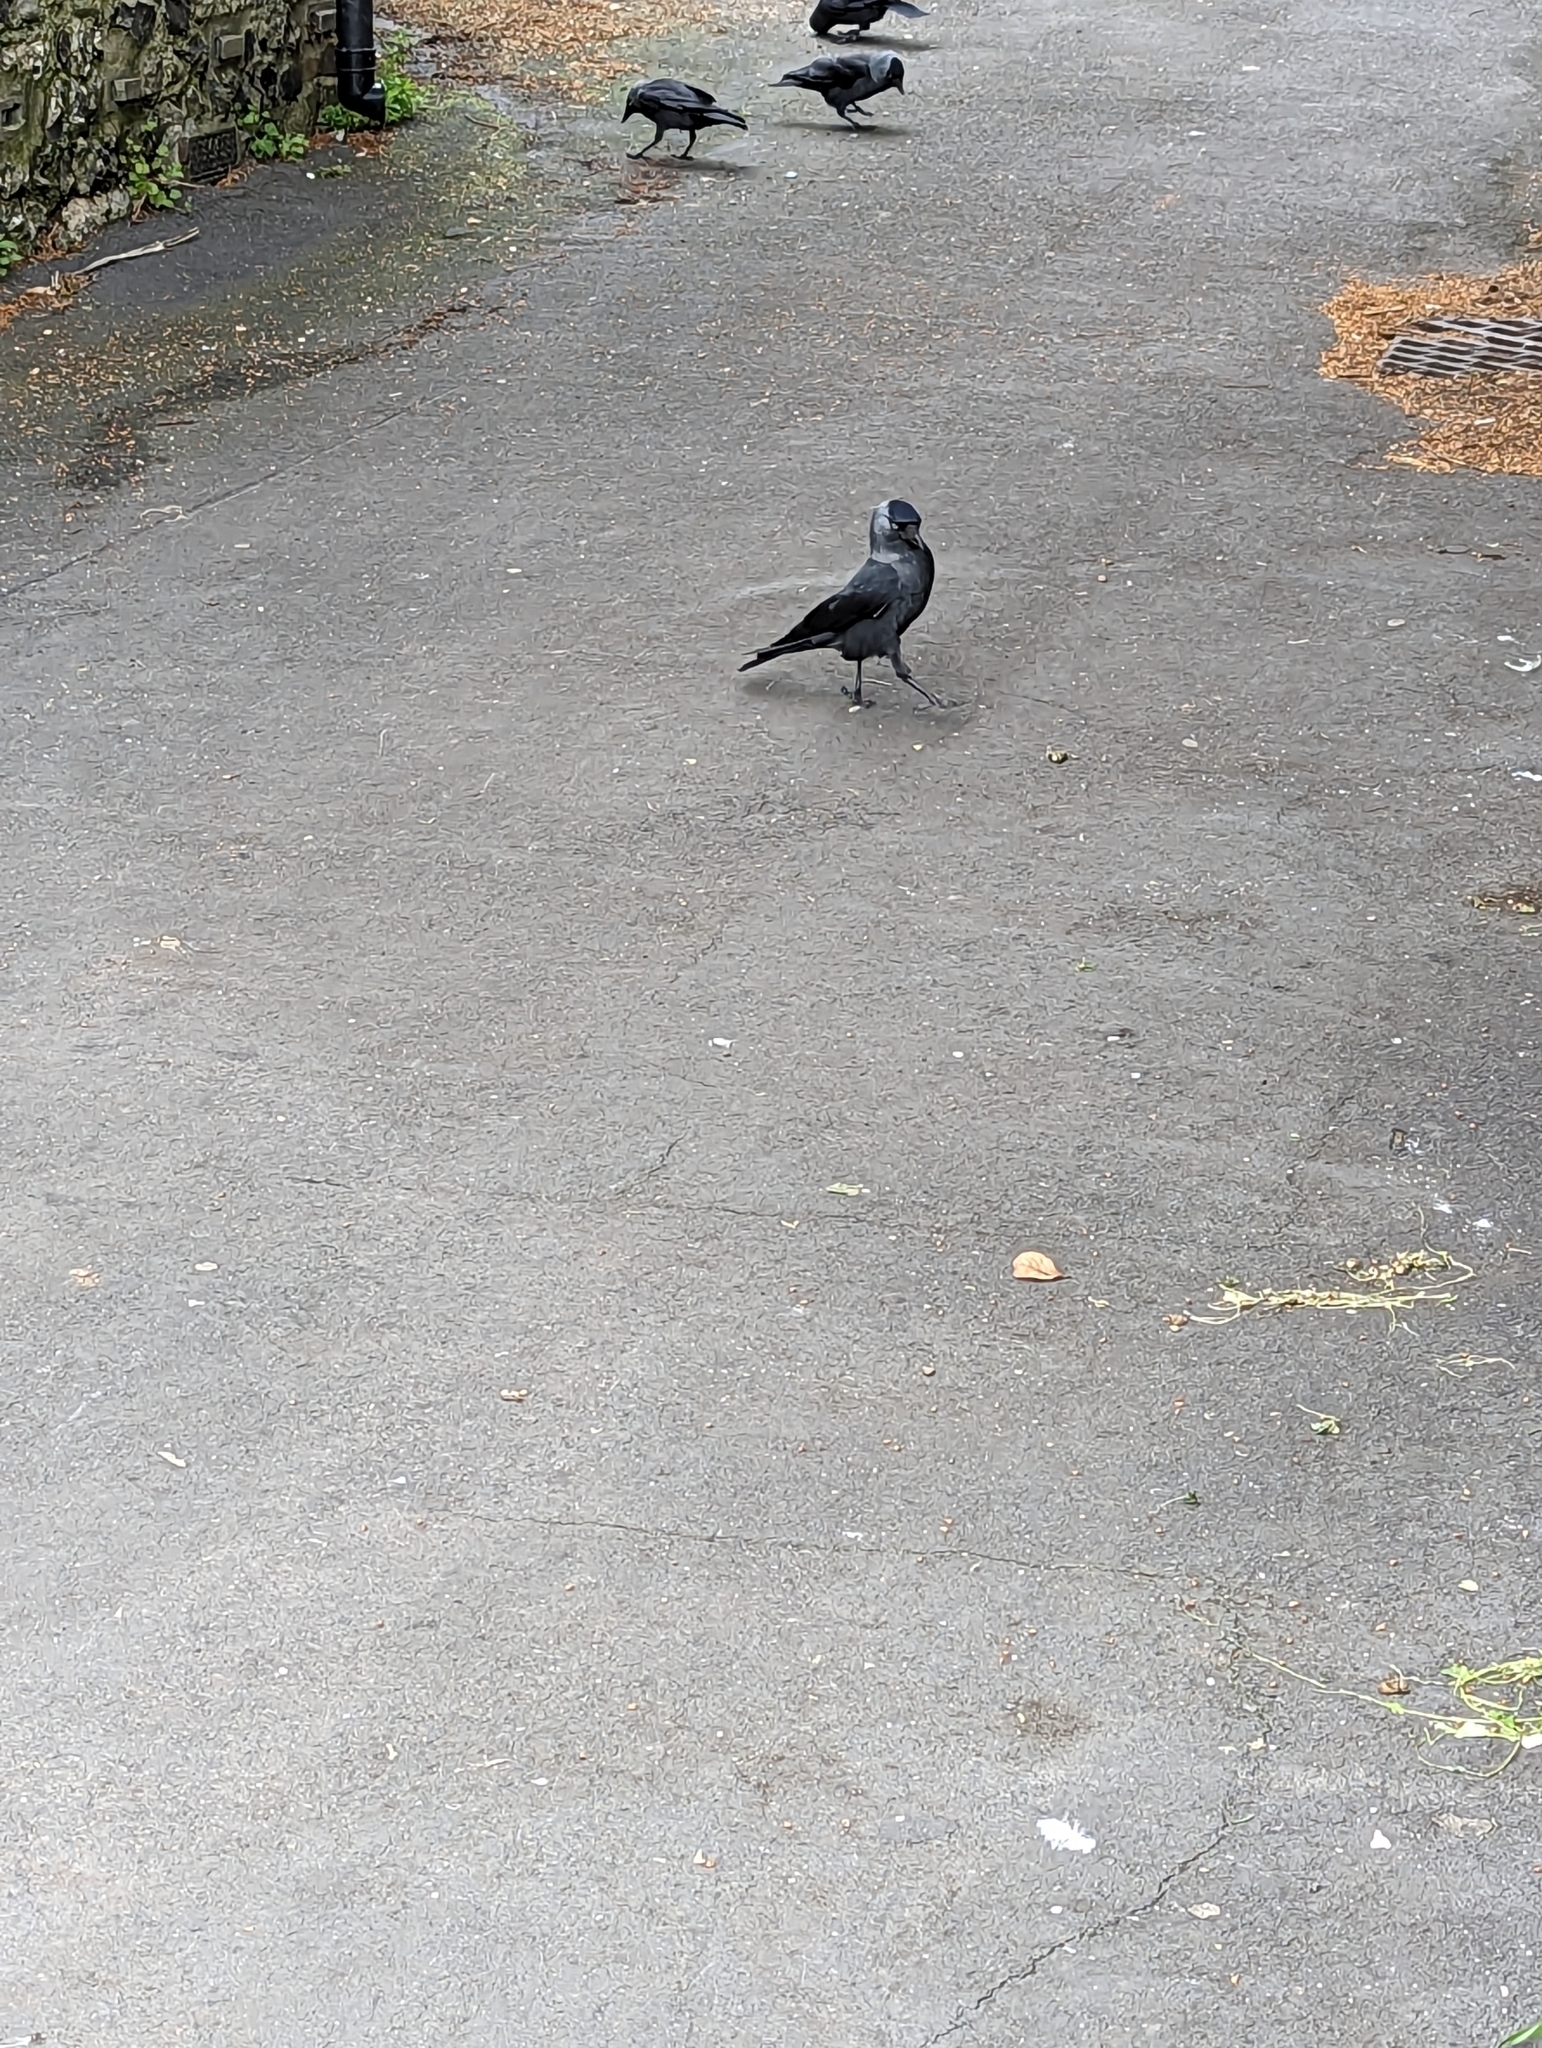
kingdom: Animalia
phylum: Chordata
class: Aves
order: Passeriformes
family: Corvidae
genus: Coloeus
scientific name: Coloeus monedula
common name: Western jackdaw
